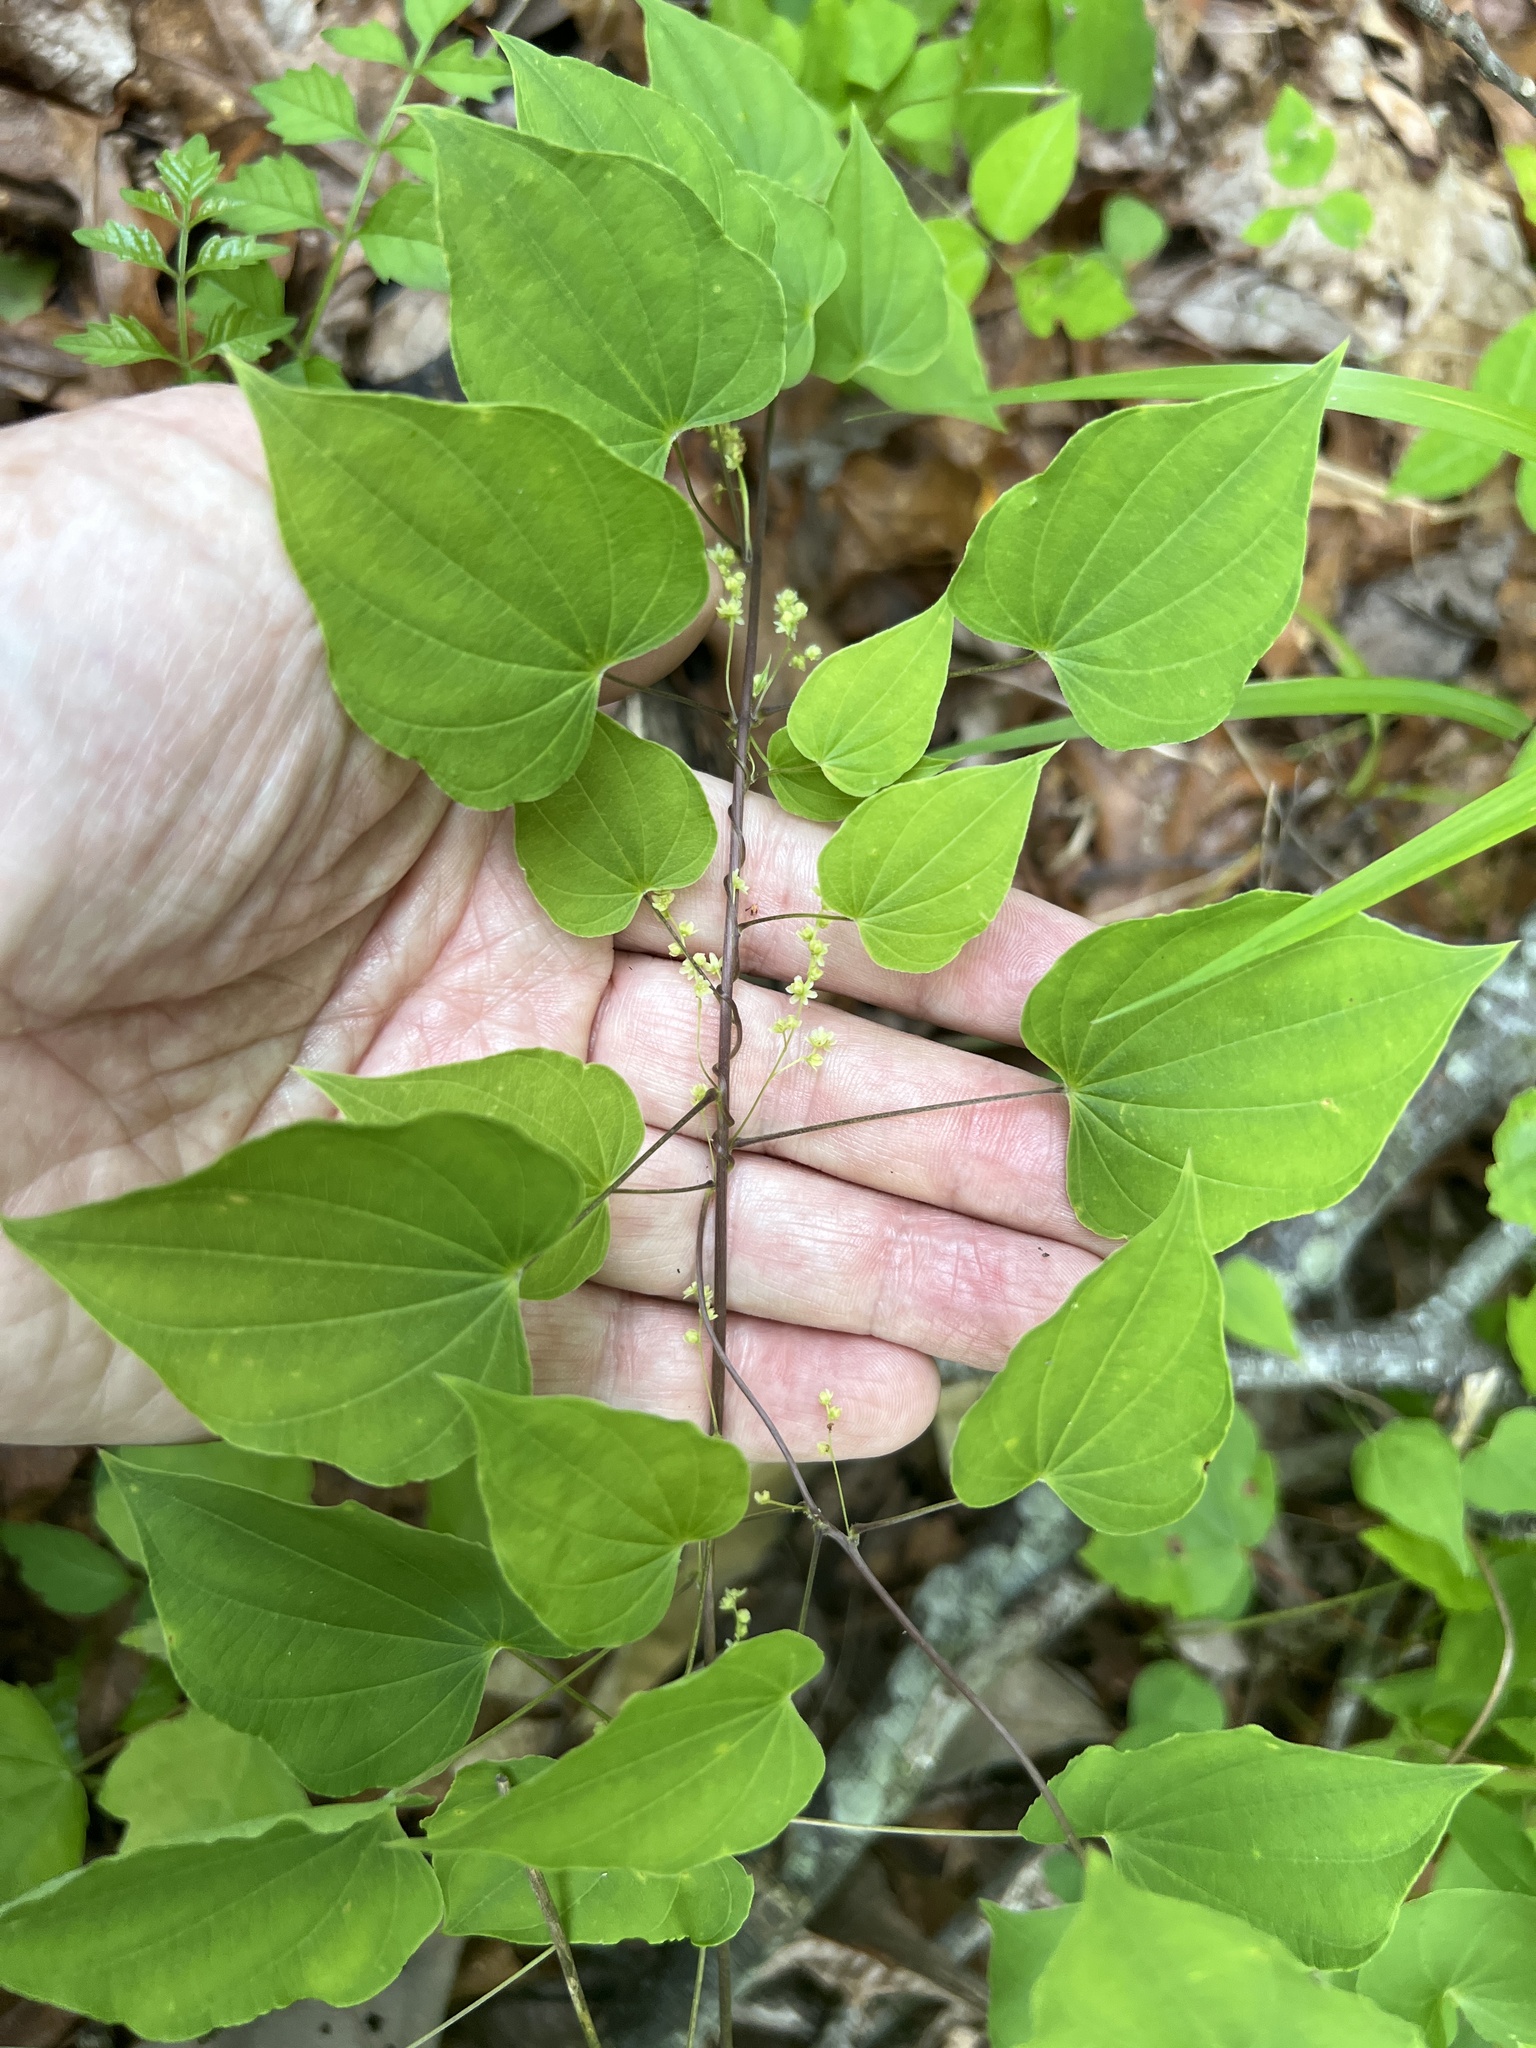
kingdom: Plantae
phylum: Tracheophyta
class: Liliopsida
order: Dioscoreales
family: Dioscoreaceae
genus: Dioscorea
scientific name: Dioscorea villosa
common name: Wild yam
